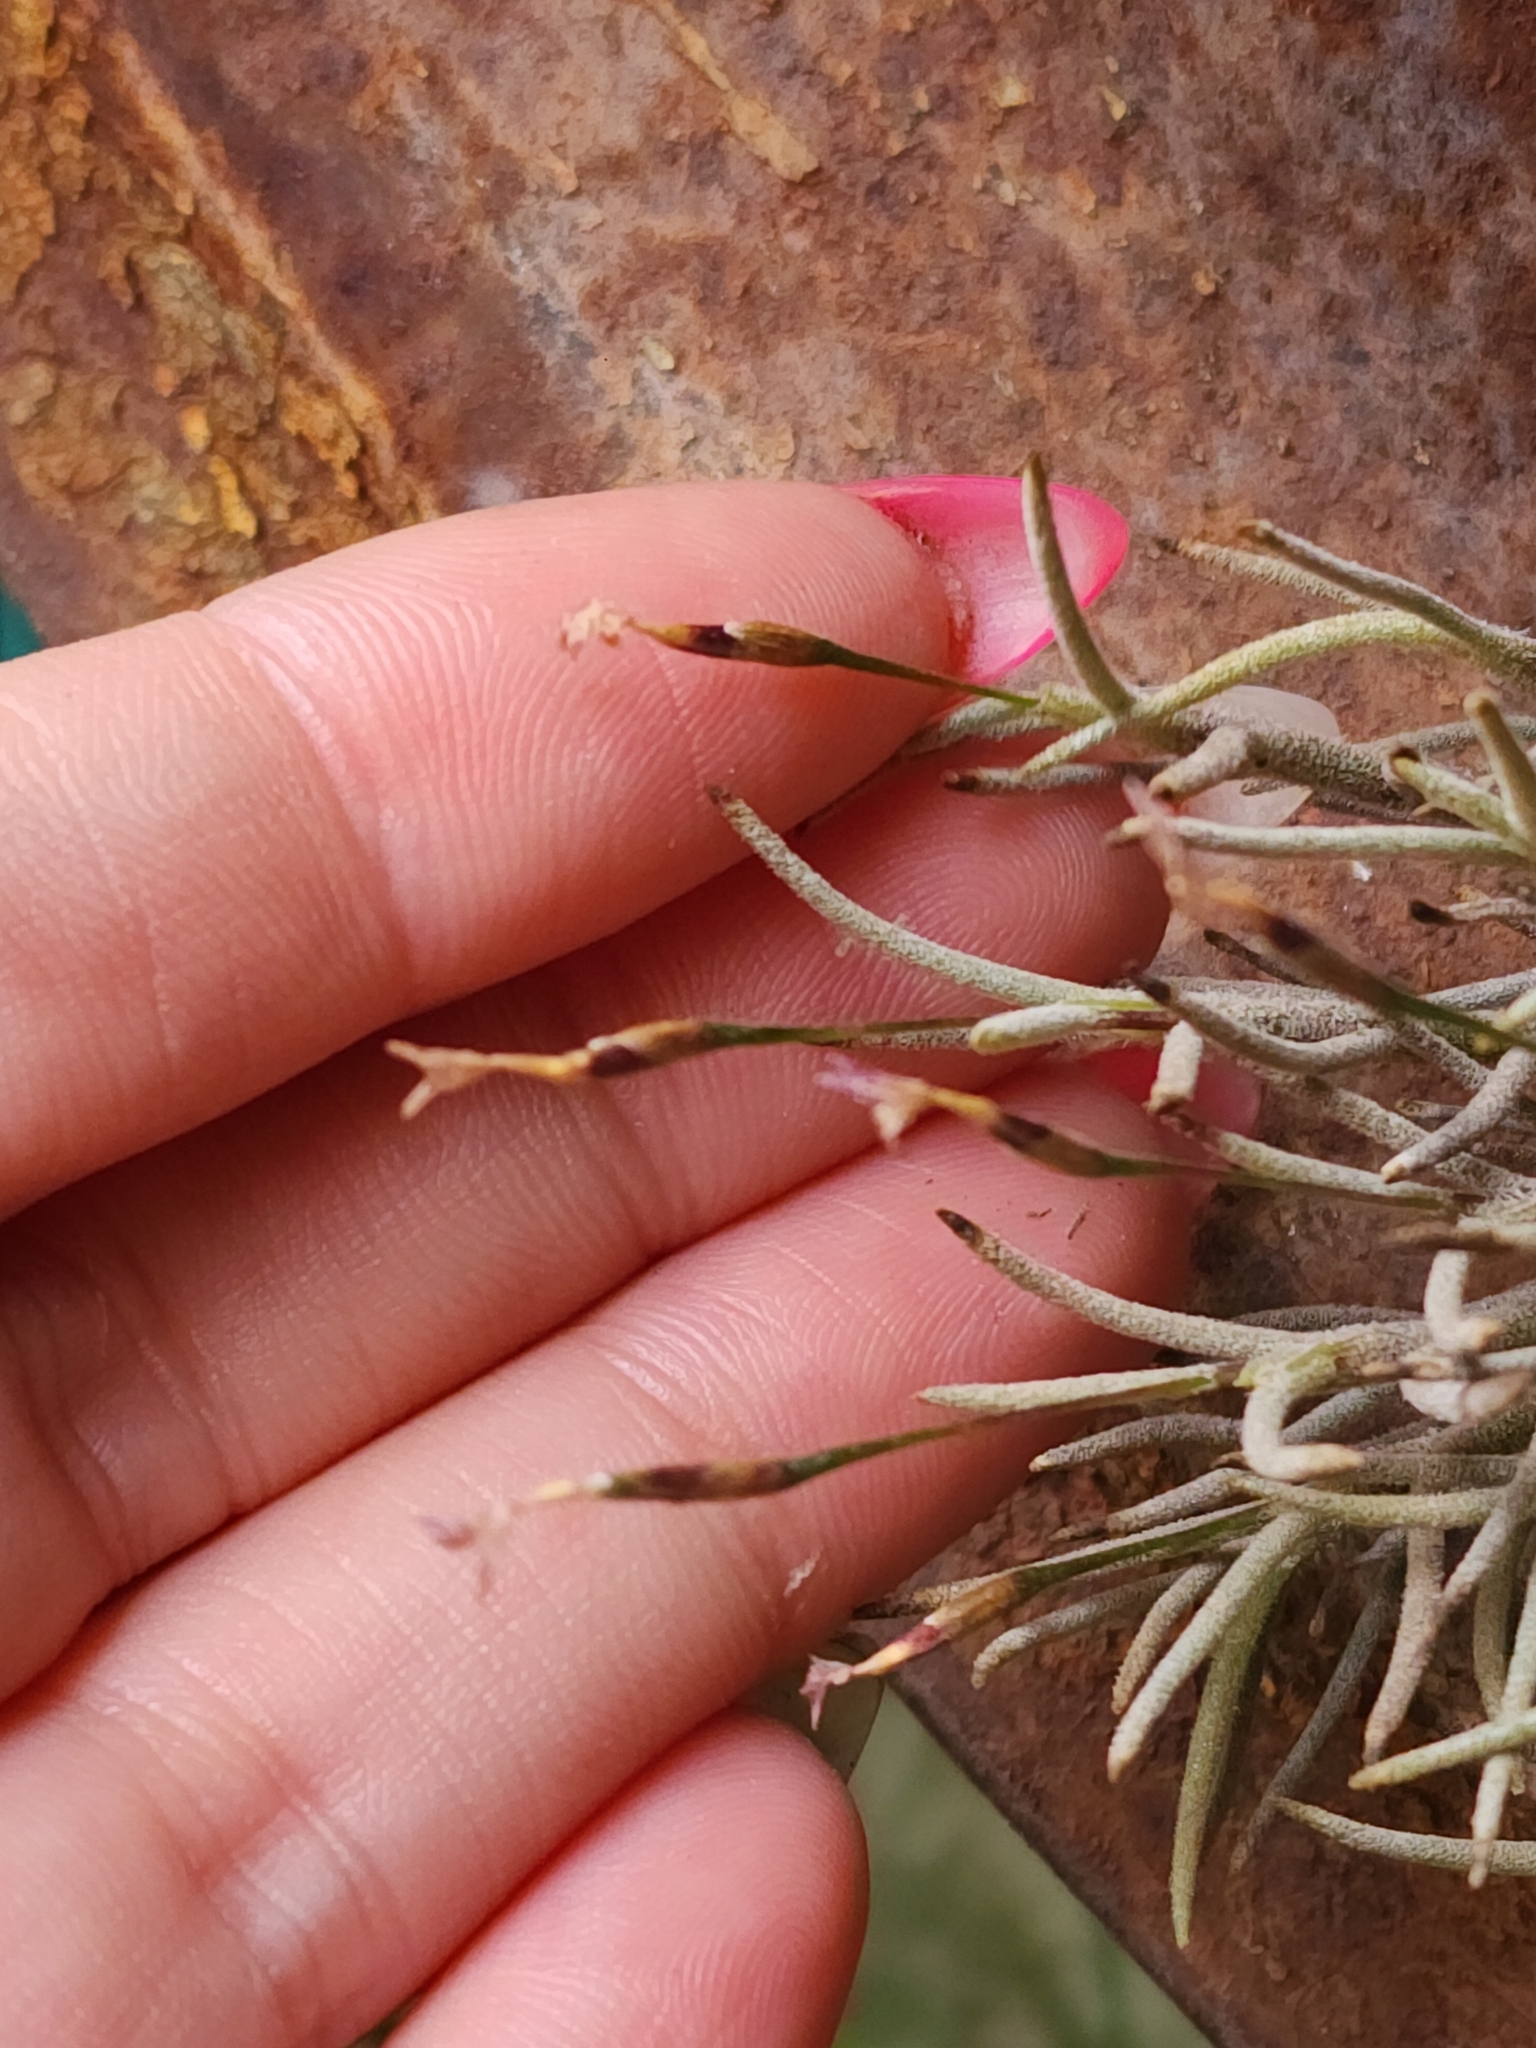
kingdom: Plantae
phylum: Tracheophyta
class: Liliopsida
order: Poales
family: Bromeliaceae
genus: Tillandsia
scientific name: Tillandsia capillaris
